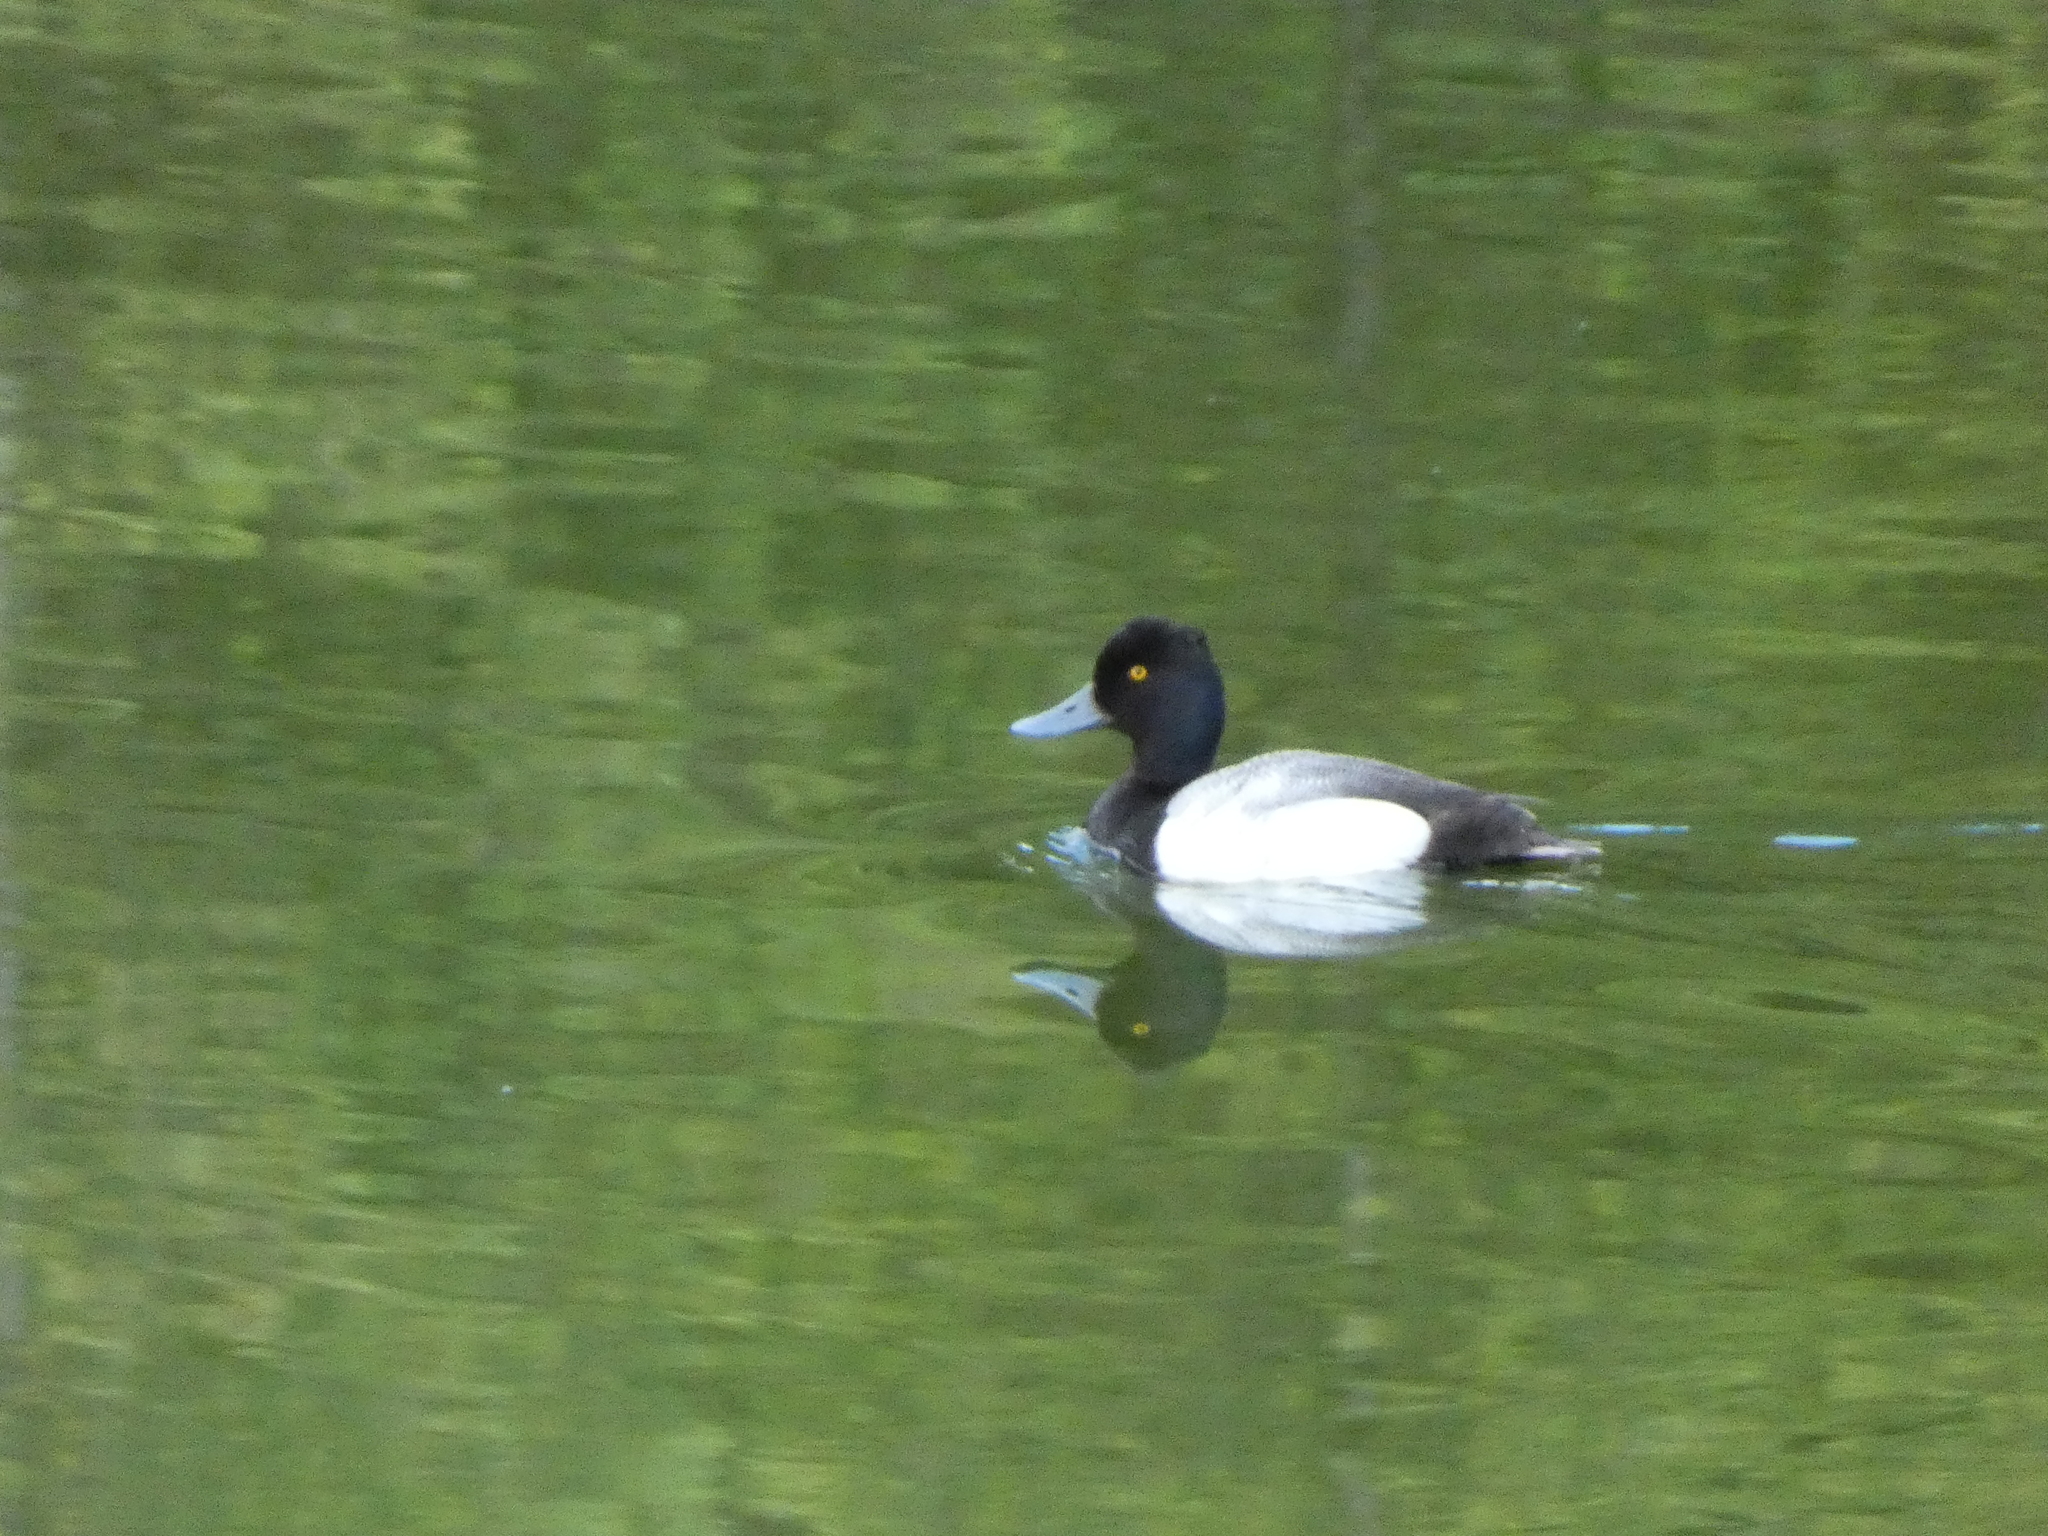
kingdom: Animalia
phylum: Chordata
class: Aves
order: Anseriformes
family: Anatidae
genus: Aythya
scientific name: Aythya affinis
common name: Lesser scaup
